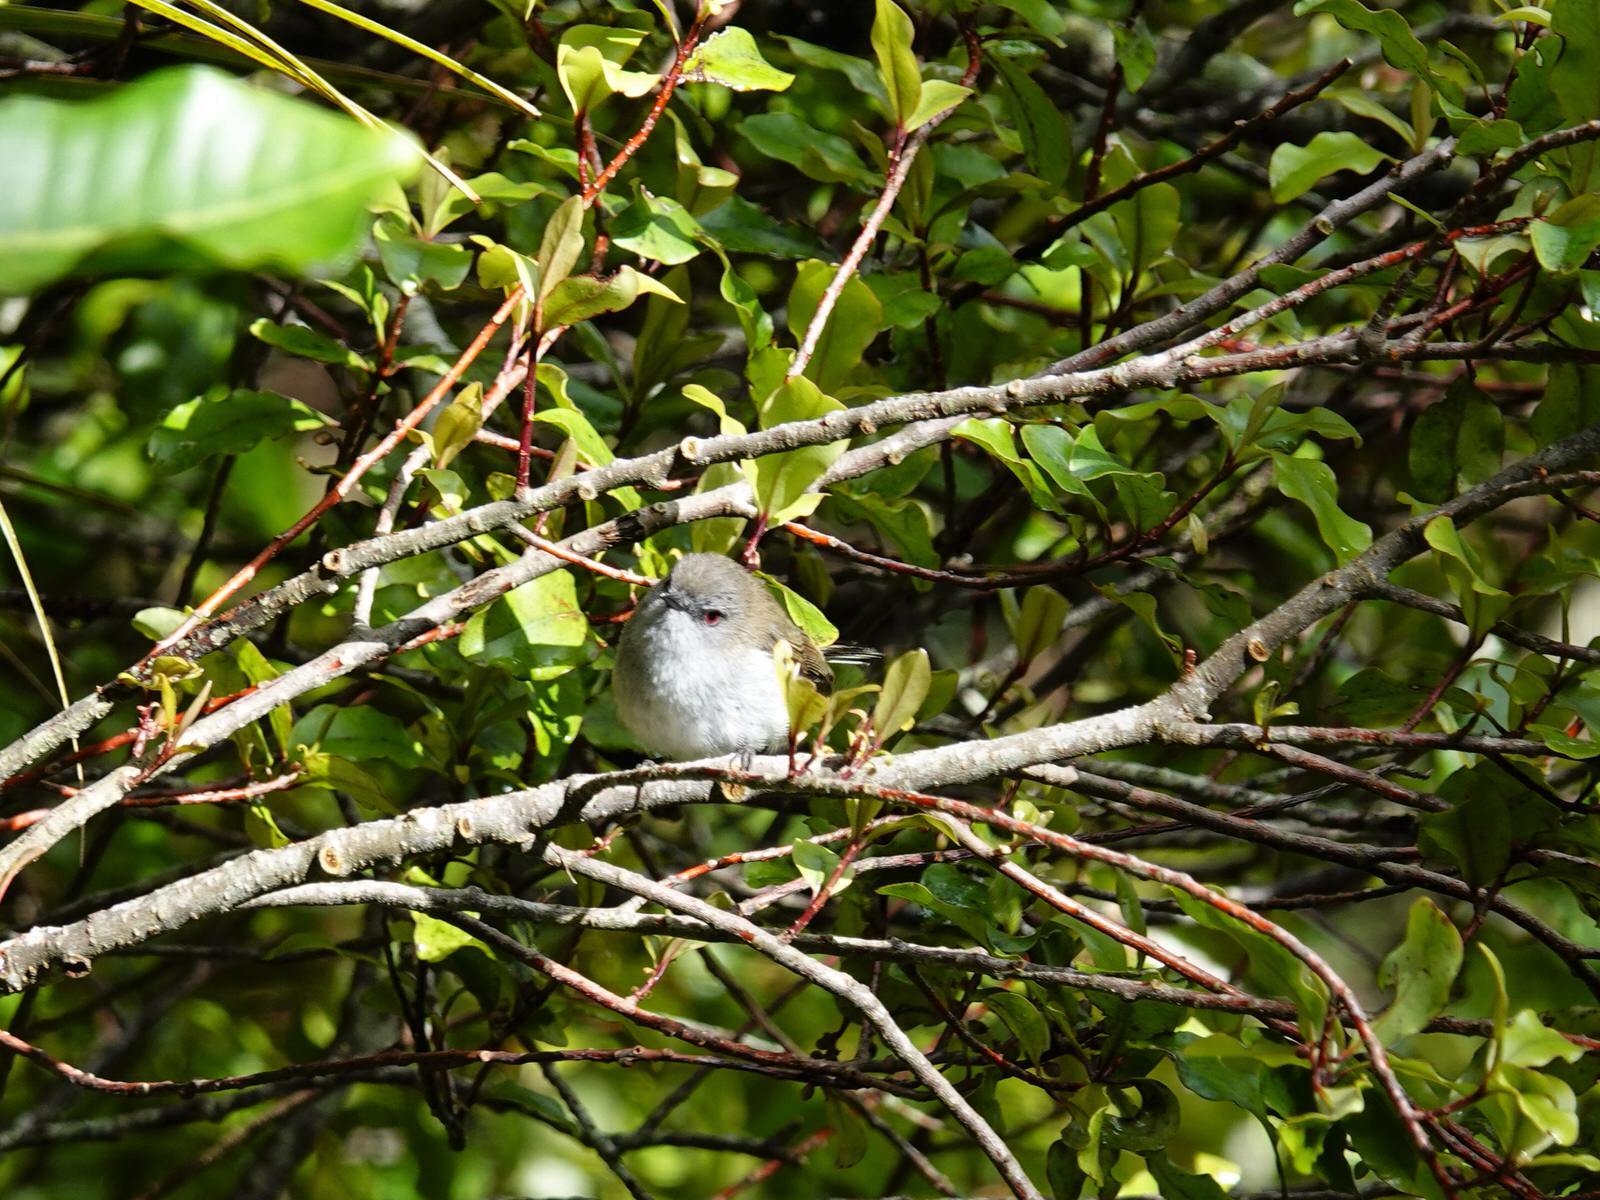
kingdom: Animalia
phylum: Chordata
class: Aves
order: Passeriformes
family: Acanthizidae
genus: Gerygone
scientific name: Gerygone igata
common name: Grey gerygone
